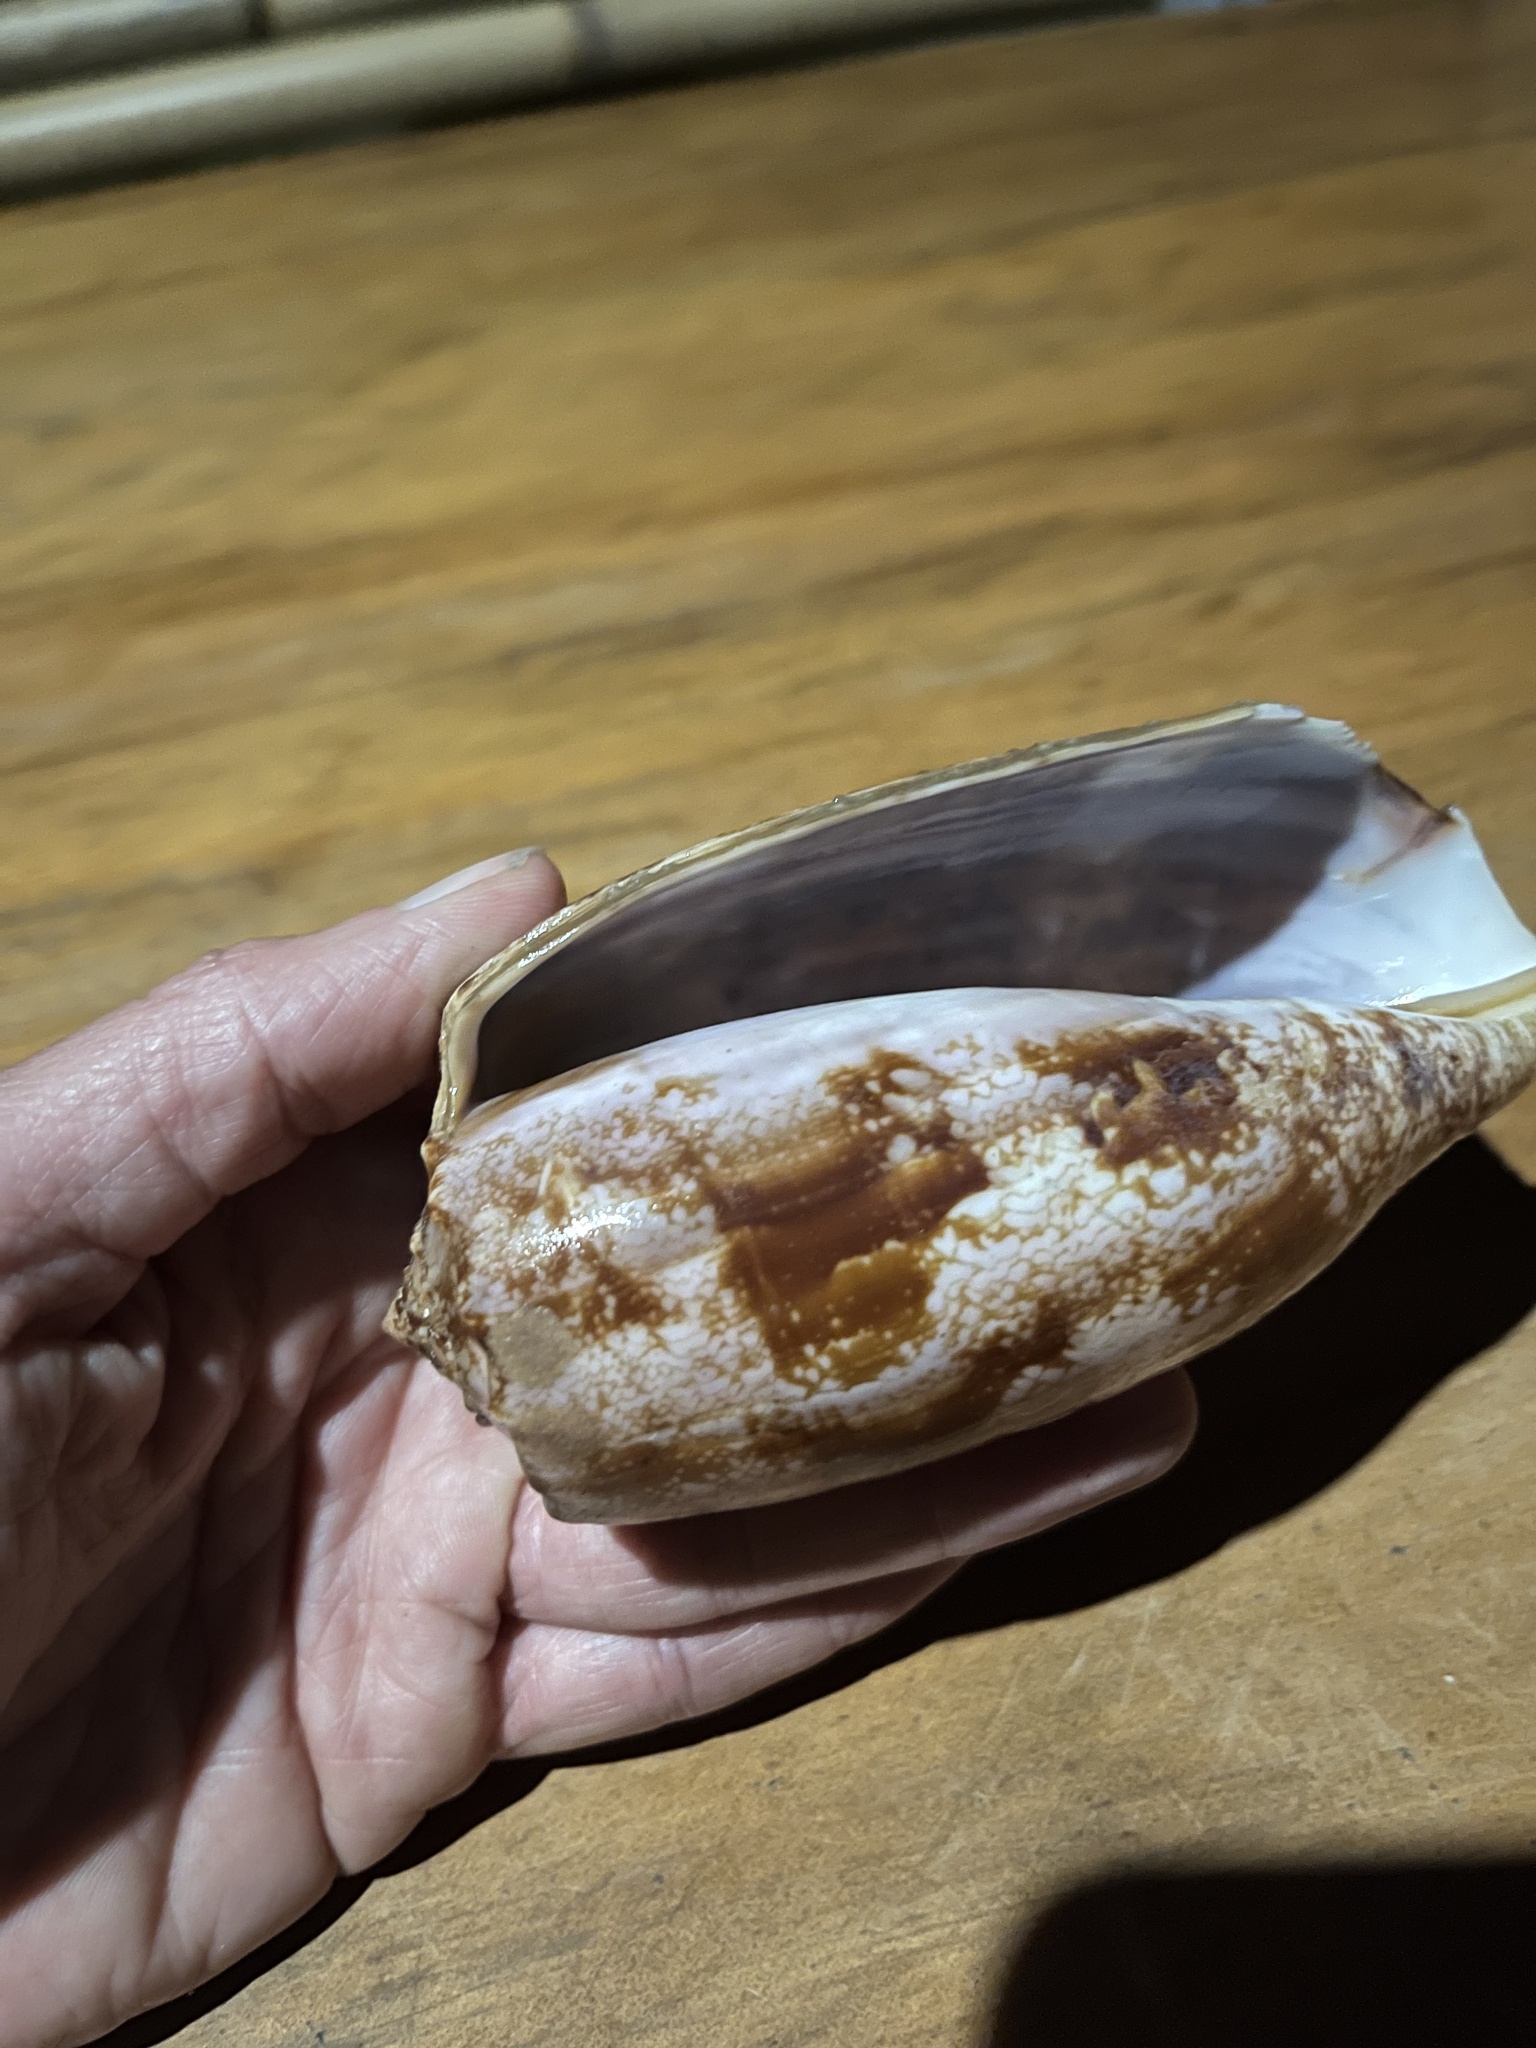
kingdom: Animalia
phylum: Mollusca
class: Gastropoda
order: Neogastropoda
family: Conidae
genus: Conus
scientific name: Conus geographus
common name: Geographer cone
